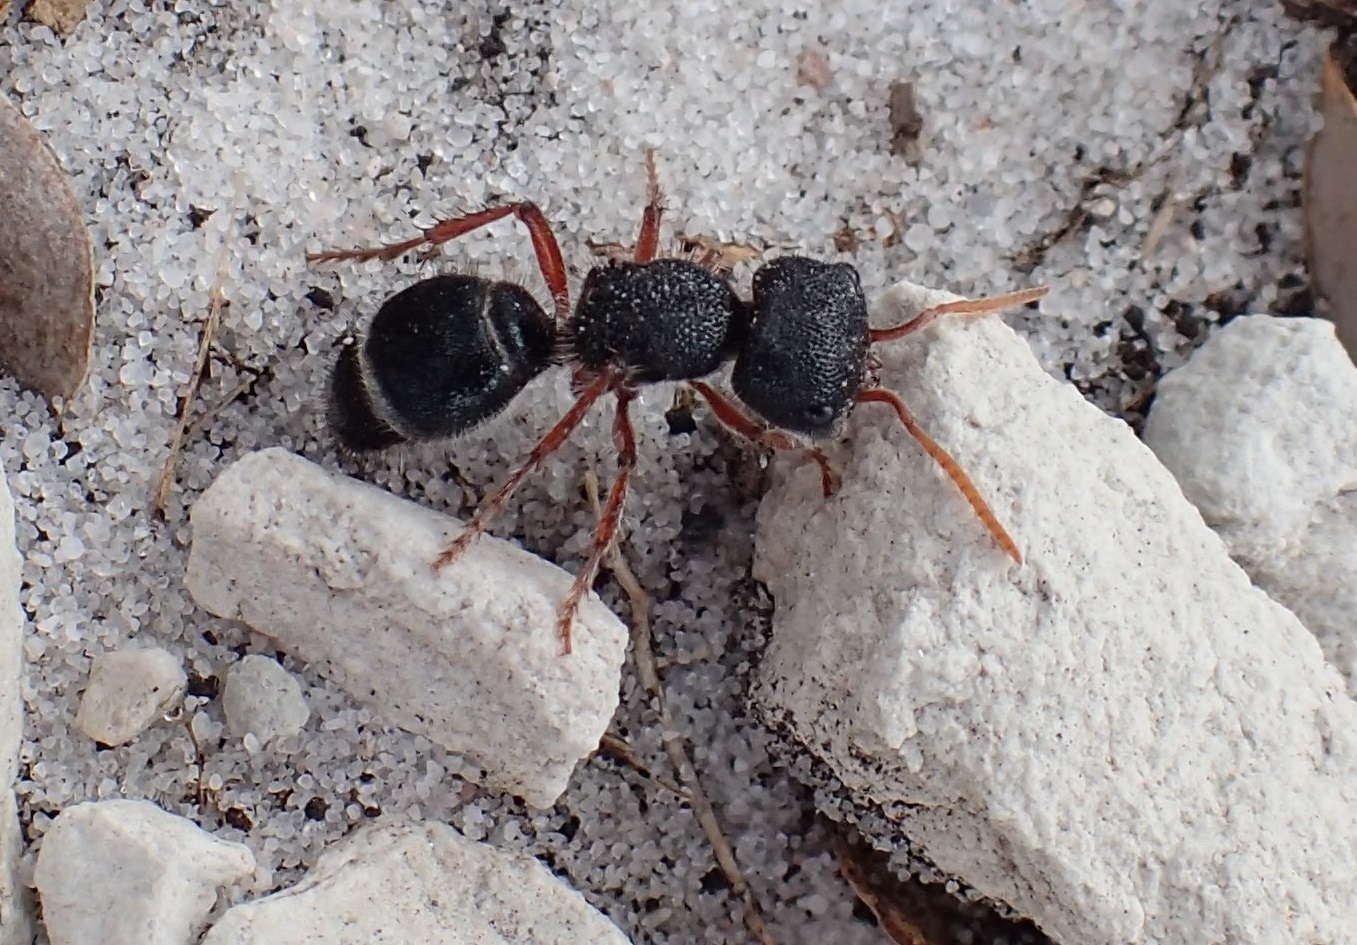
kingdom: Animalia
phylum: Arthropoda
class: Insecta
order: Hymenoptera
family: Mutillidae
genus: Ephutomorpha
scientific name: Ephutomorpha
